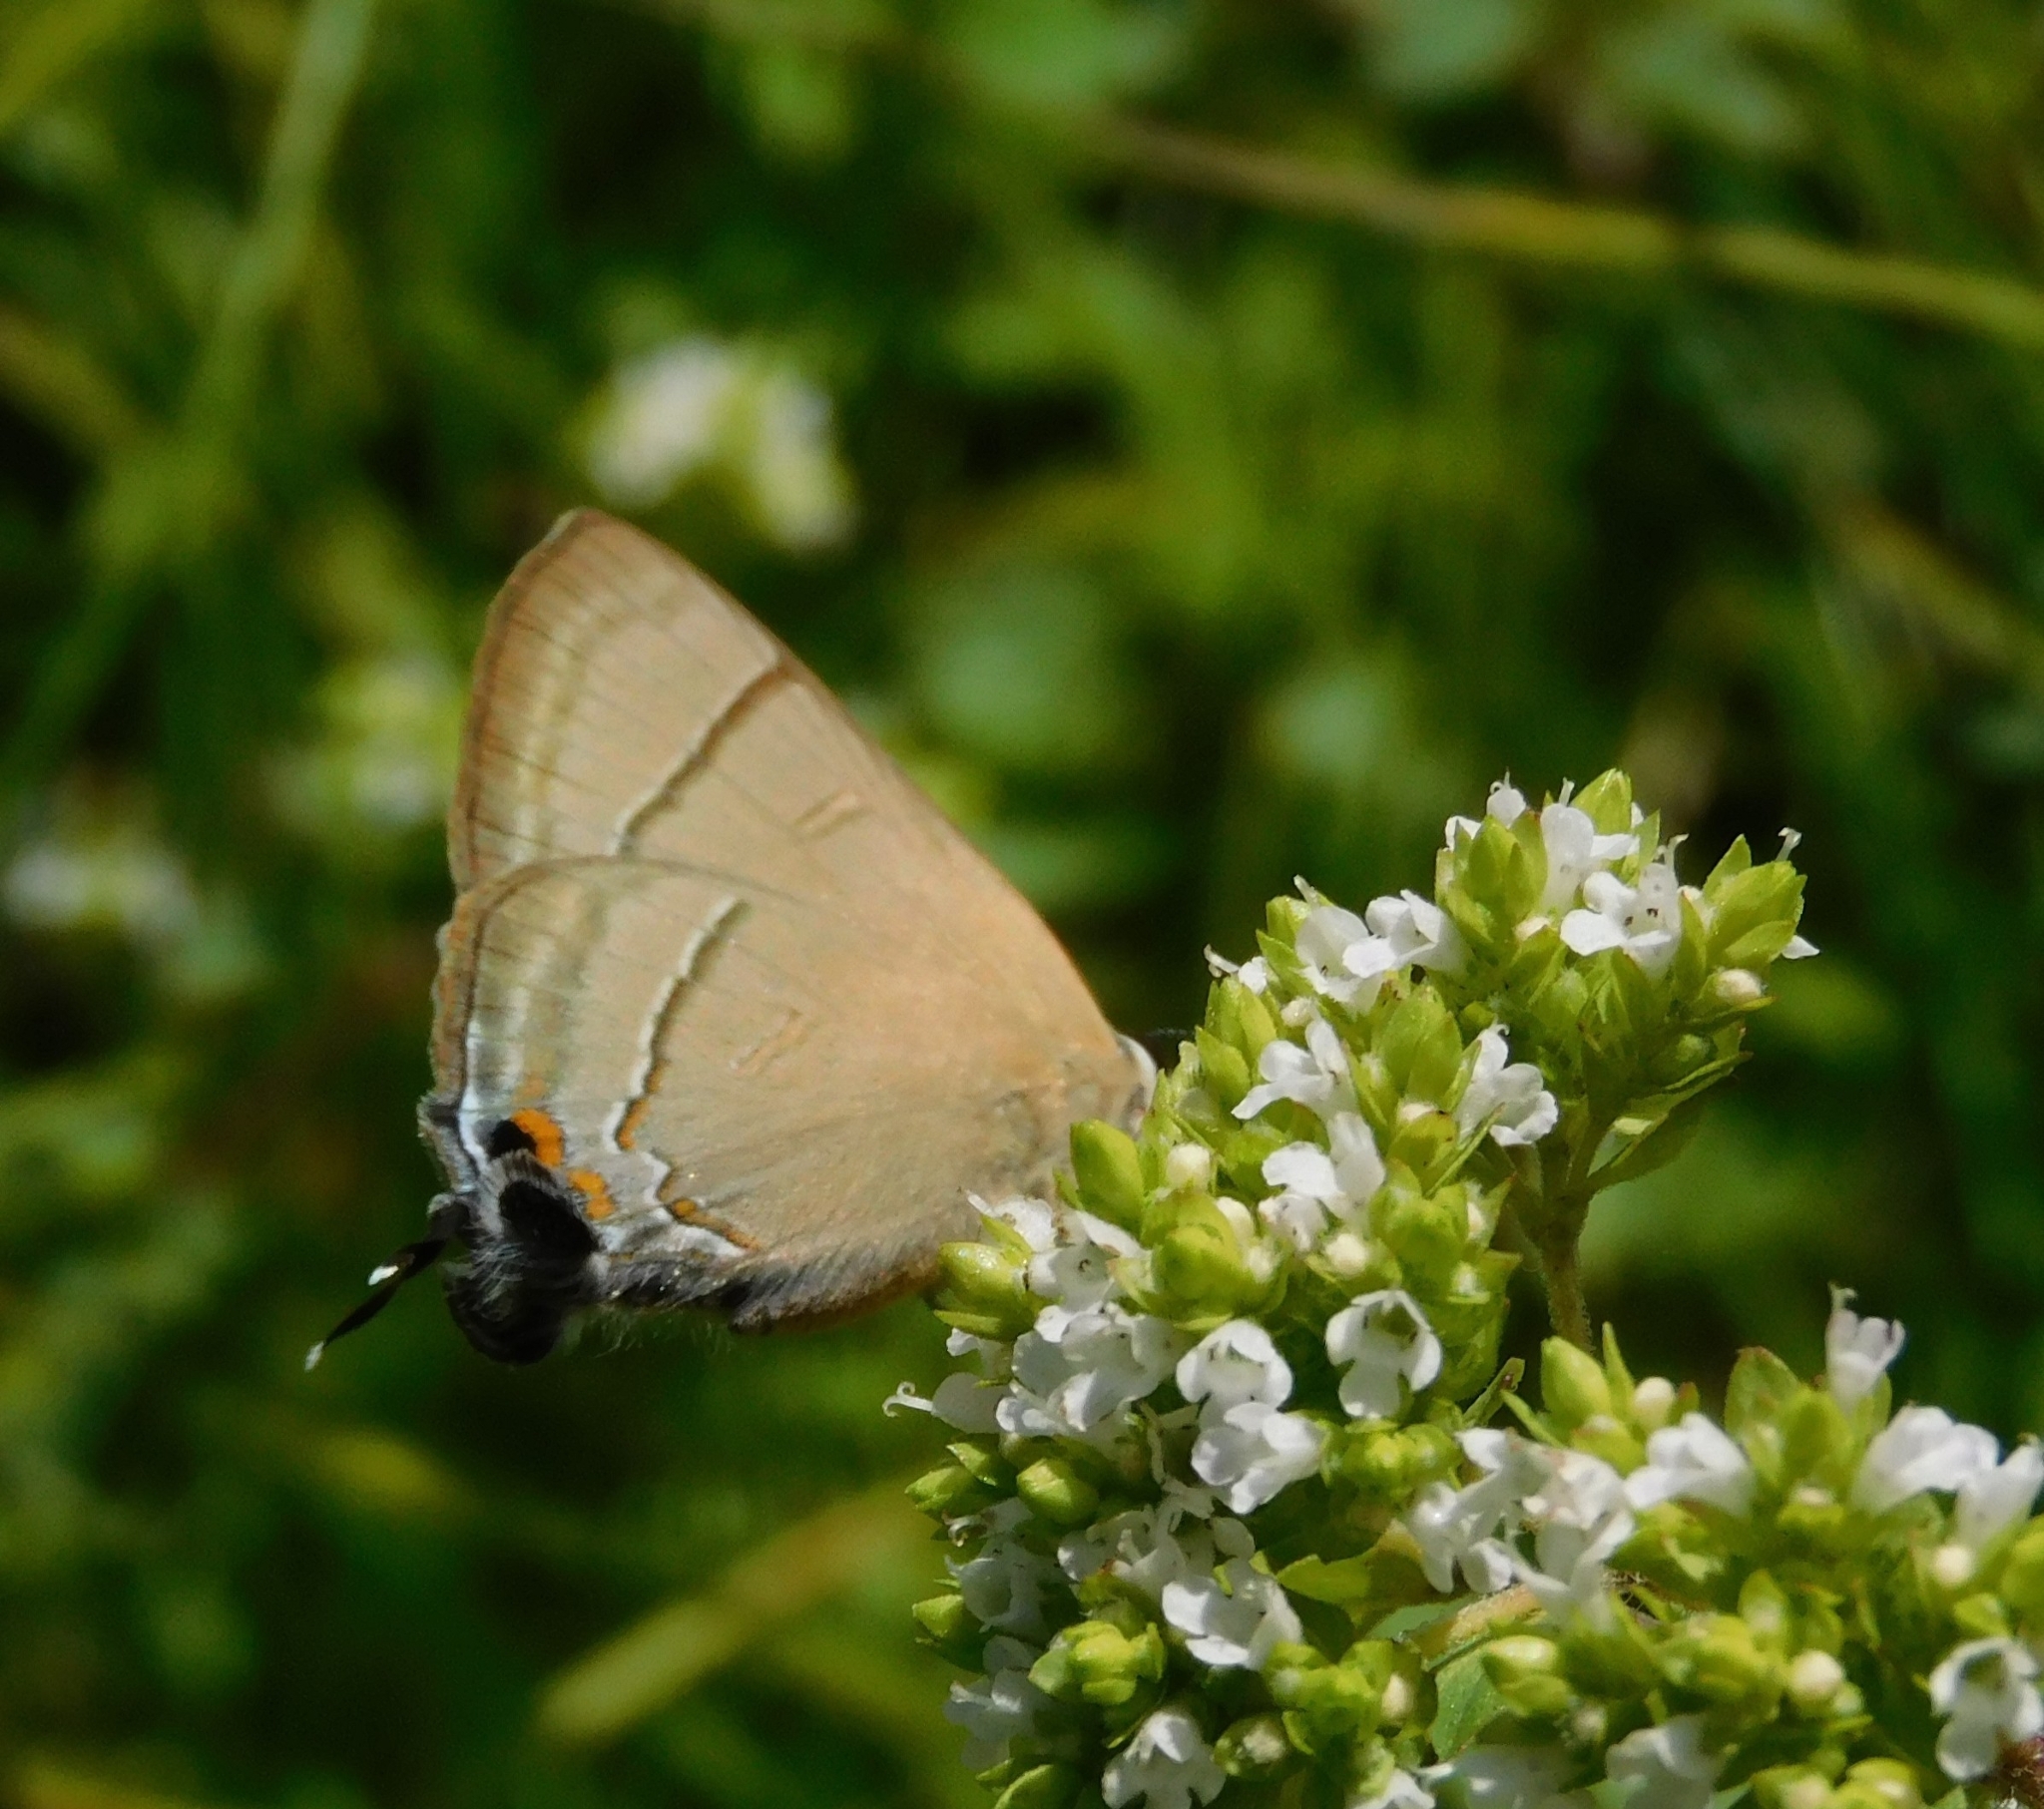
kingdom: Animalia
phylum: Arthropoda
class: Insecta
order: Lepidoptera
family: Lycaenidae
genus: Rapala
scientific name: Rapala nissa
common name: Common flash
